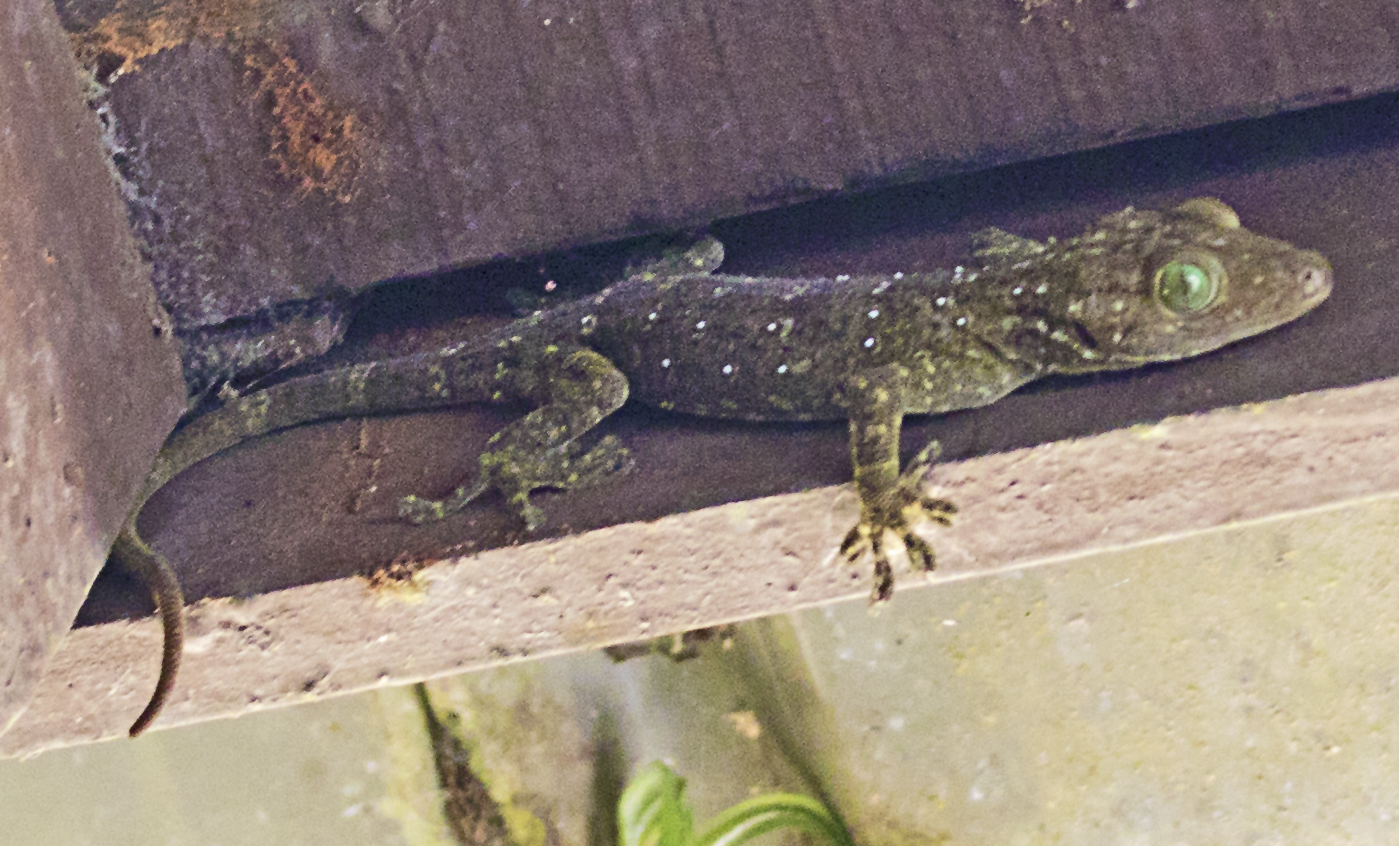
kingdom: Animalia
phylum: Chordata
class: Squamata
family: Gekkonidae
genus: Gekko
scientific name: Gekko albofasciolatus
